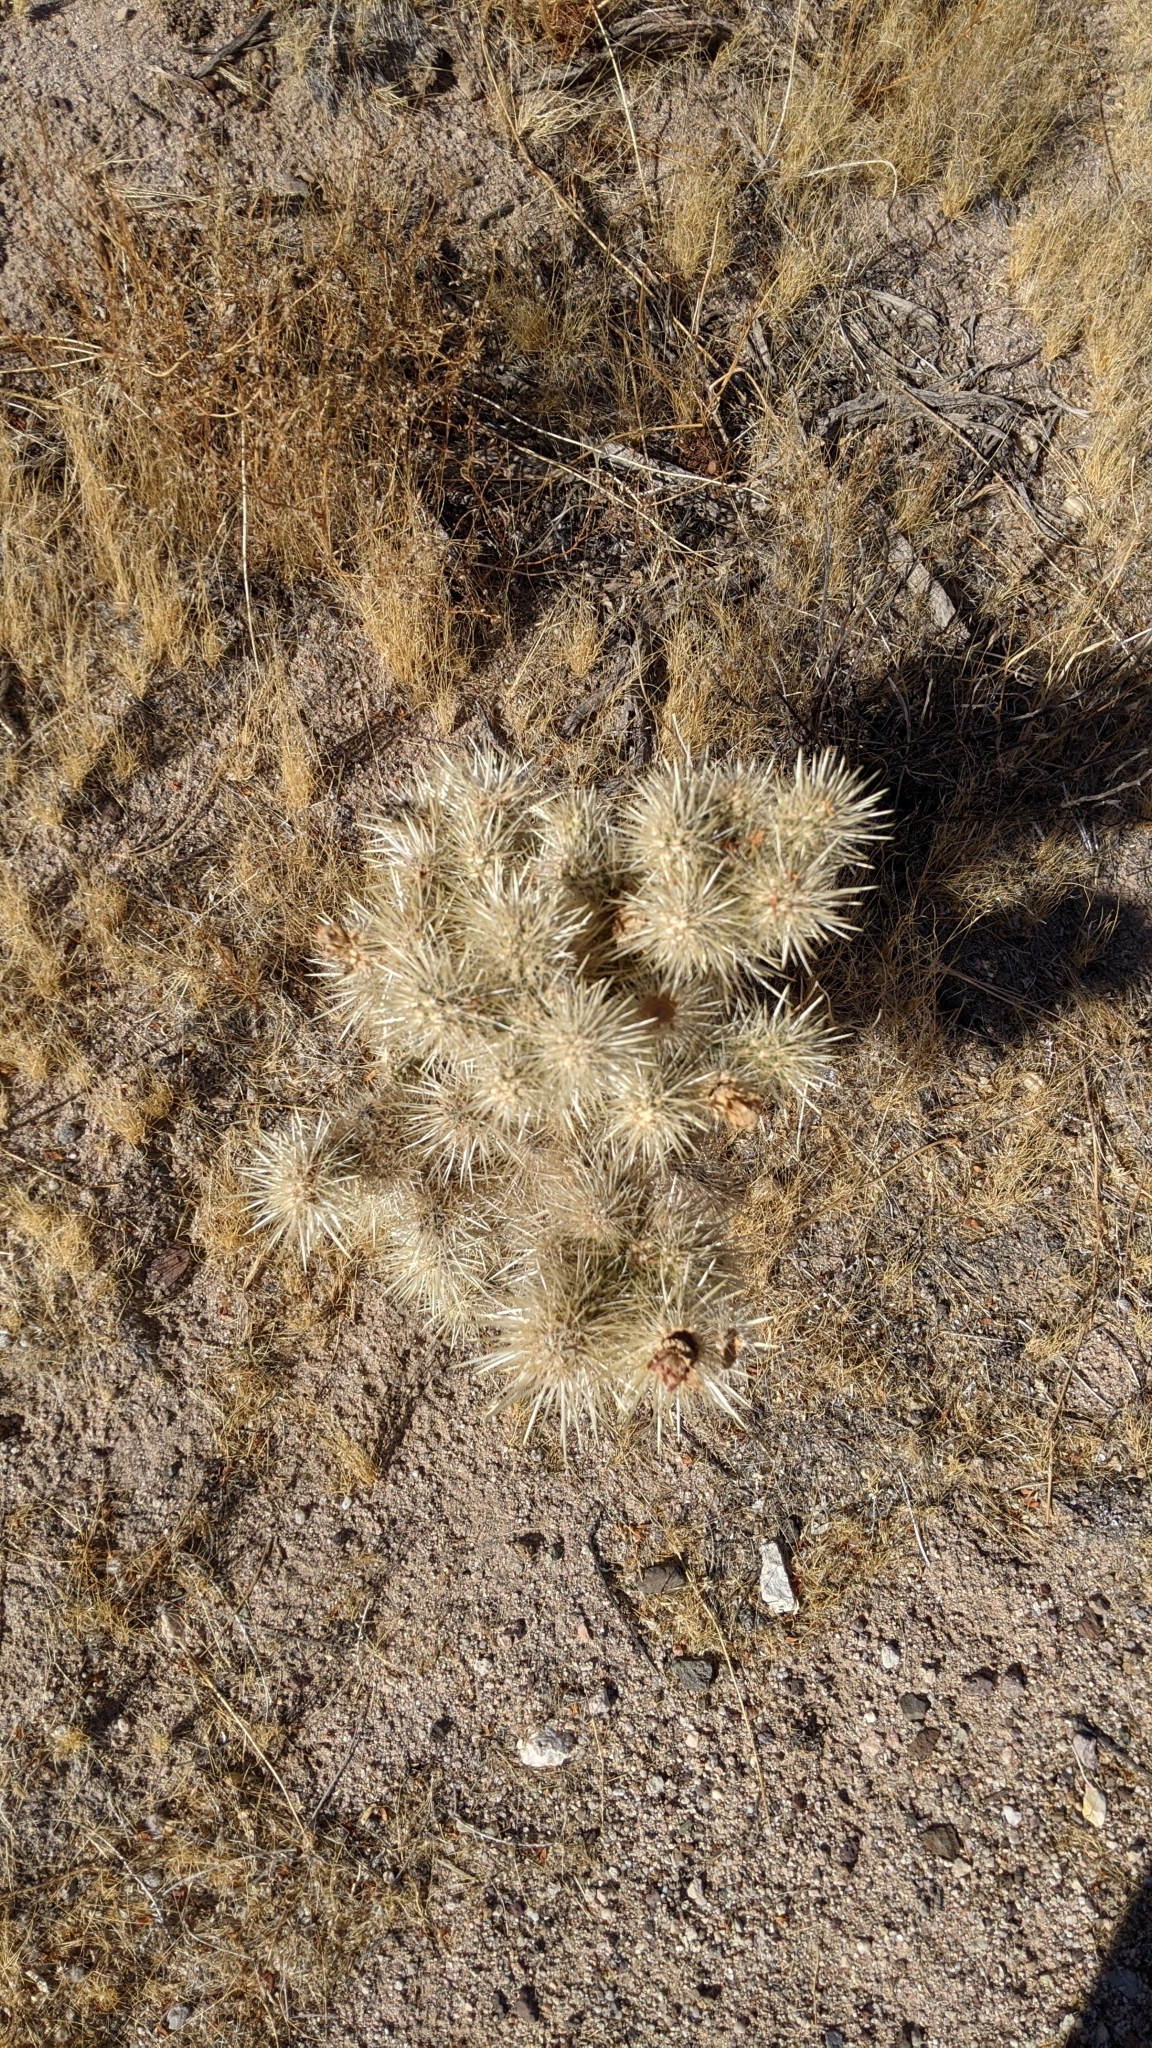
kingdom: Plantae
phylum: Tracheophyta
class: Magnoliopsida
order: Caryophyllales
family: Cactaceae
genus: Cylindropuntia
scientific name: Cylindropuntia echinocarpa
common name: Ground cholla
